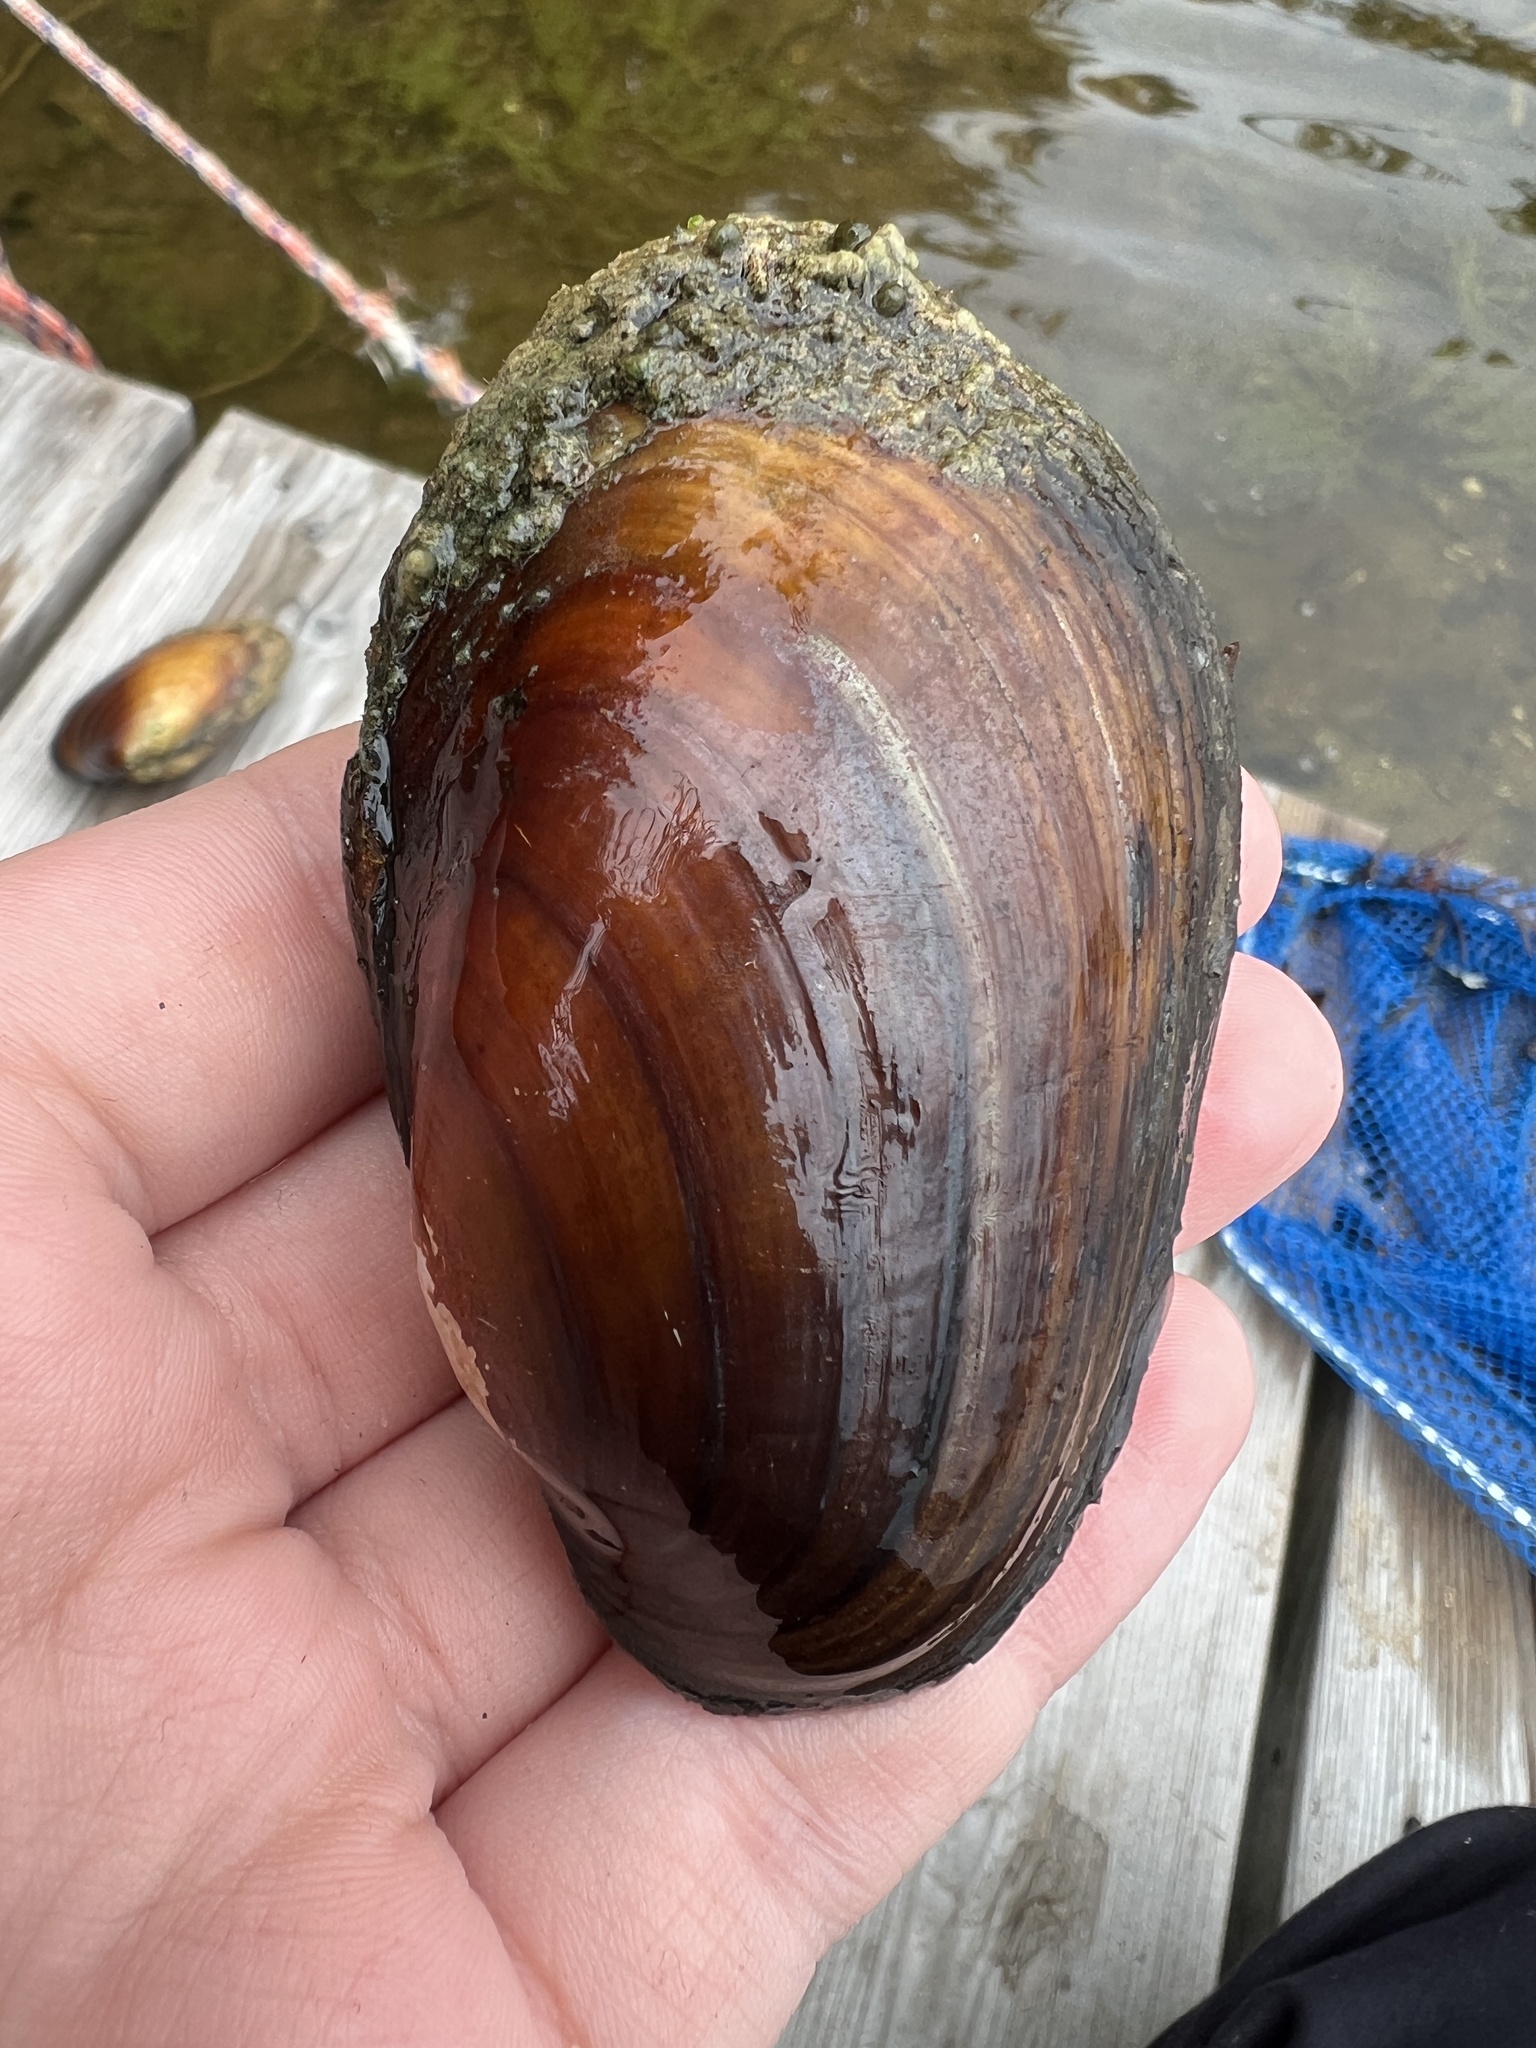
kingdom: Animalia
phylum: Mollusca
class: Bivalvia
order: Unionida
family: Unionidae
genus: Lampsilis
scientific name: Lampsilis siliquoidea
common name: Fatmucket
